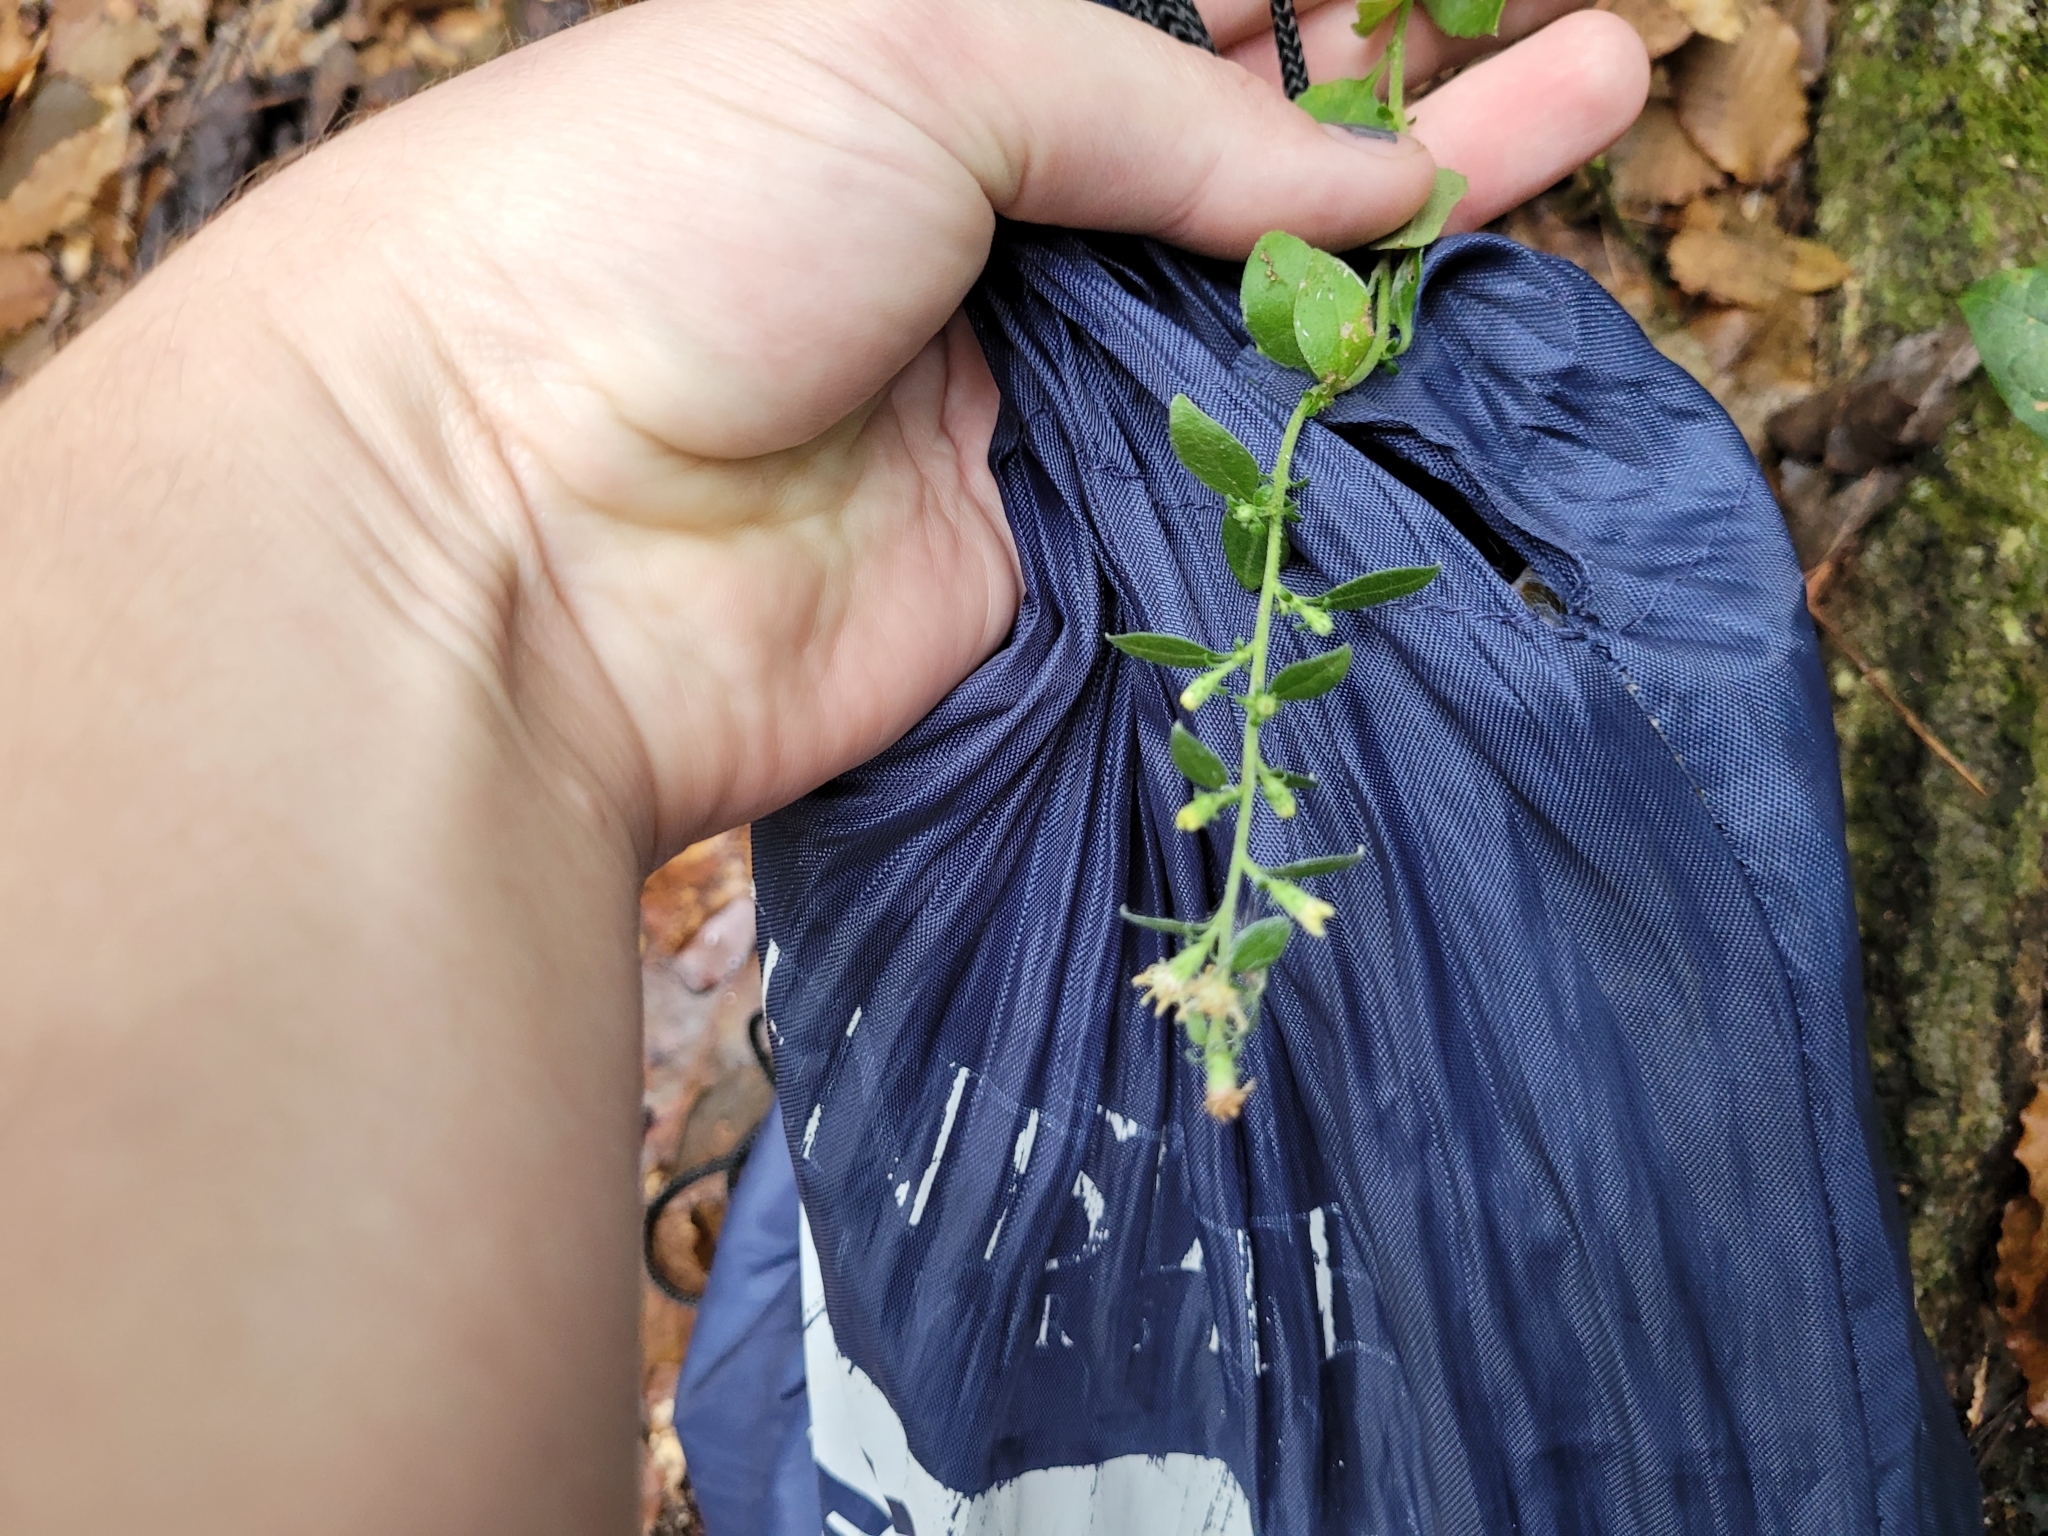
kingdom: Plantae
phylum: Tracheophyta
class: Magnoliopsida
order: Asterales
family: Asteraceae
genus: Solidago
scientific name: Solidago discoidea
